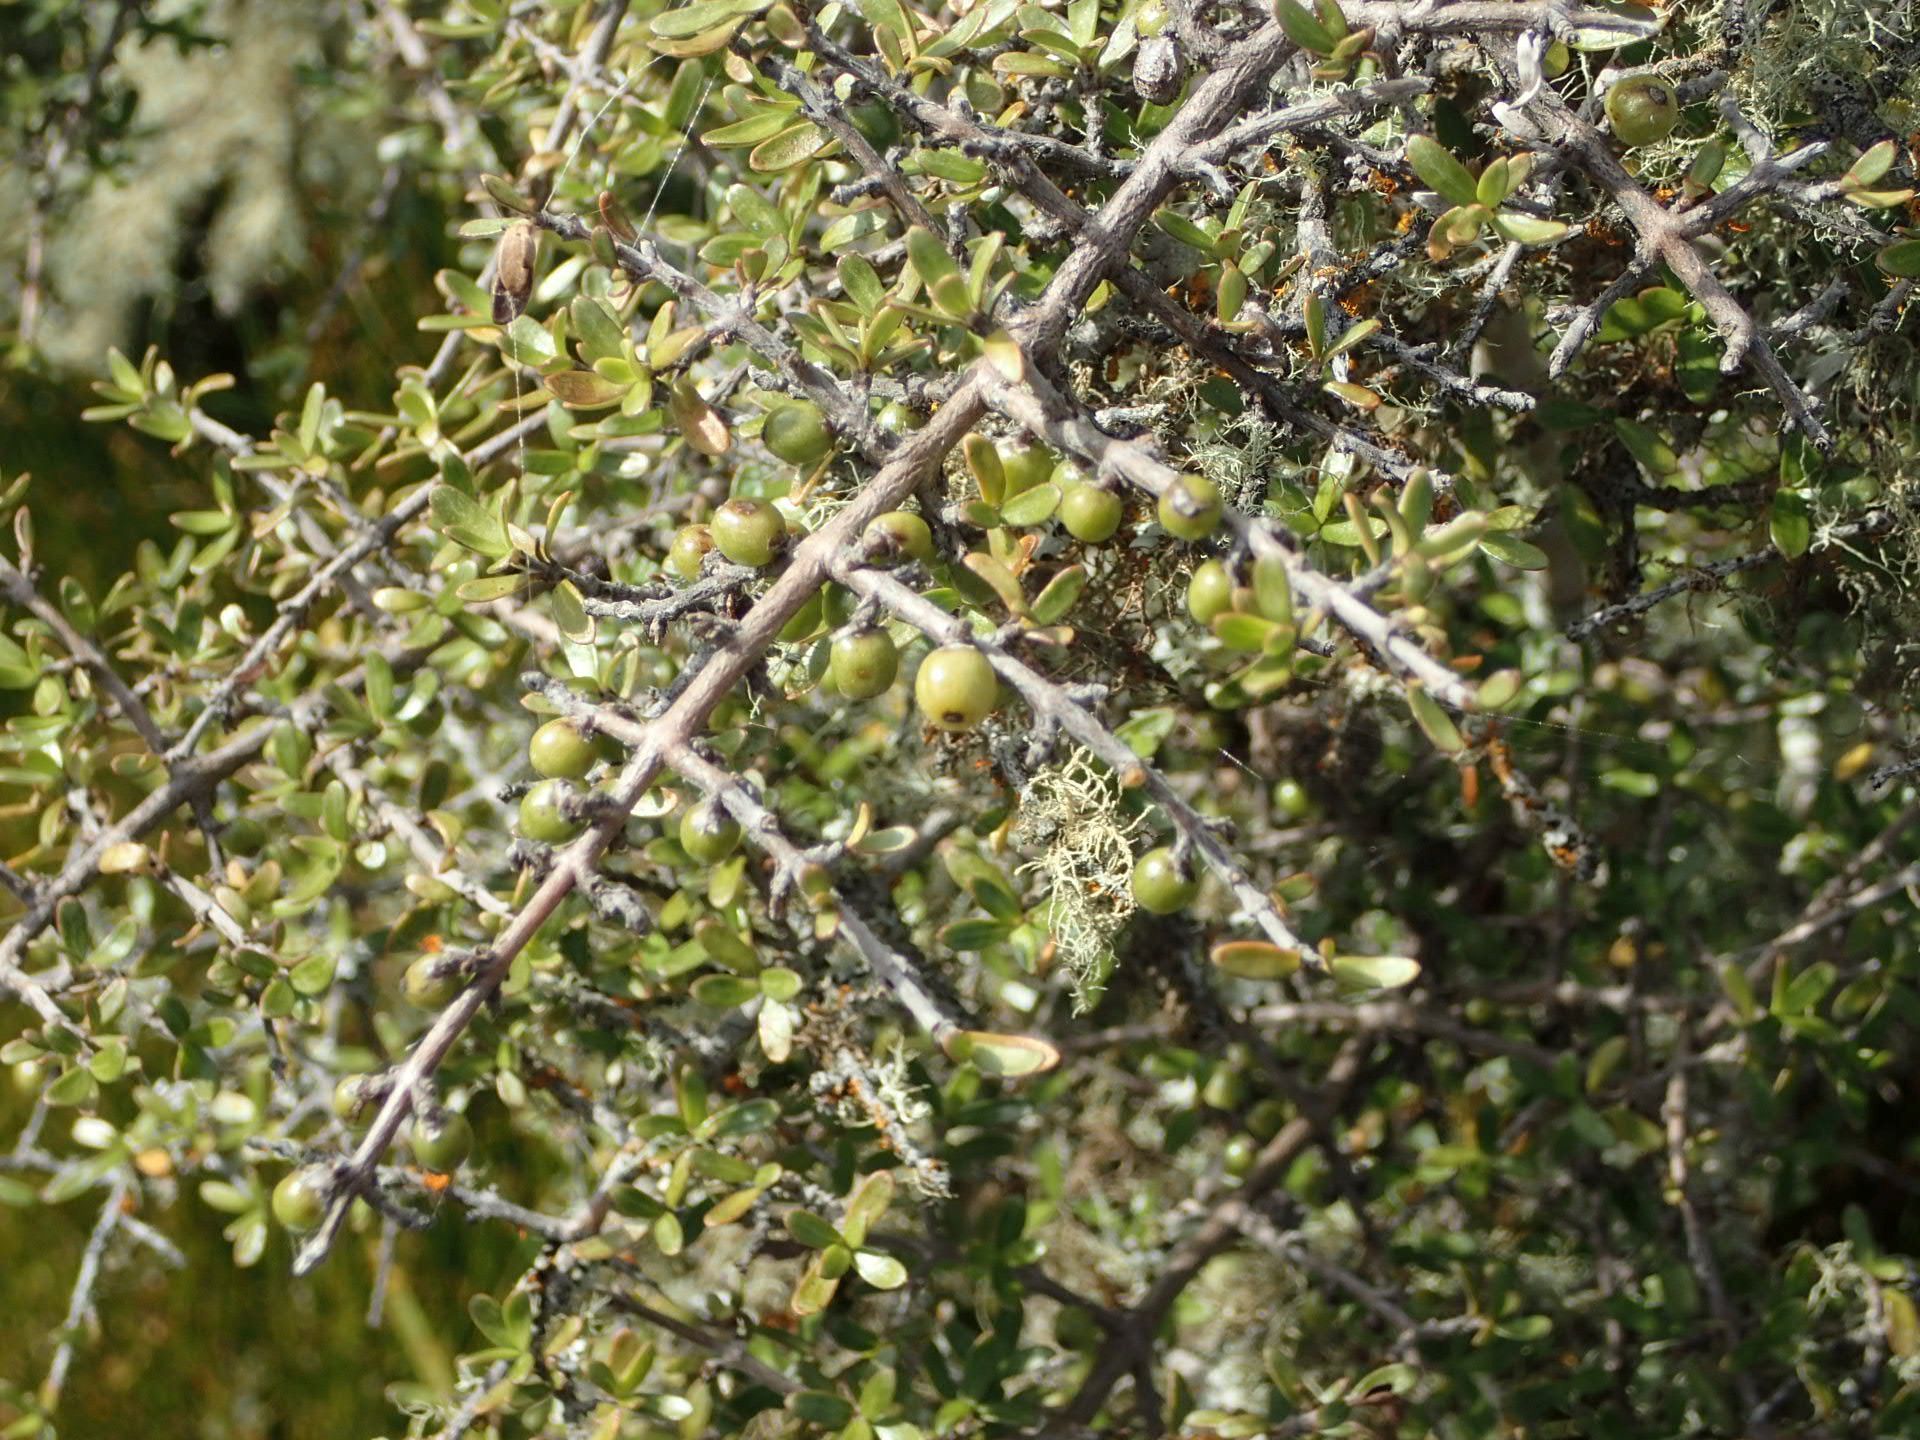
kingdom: Plantae
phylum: Tracheophyta
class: Magnoliopsida
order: Gentianales
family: Rubiaceae
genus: Coprosma
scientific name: Coprosma dumosa
